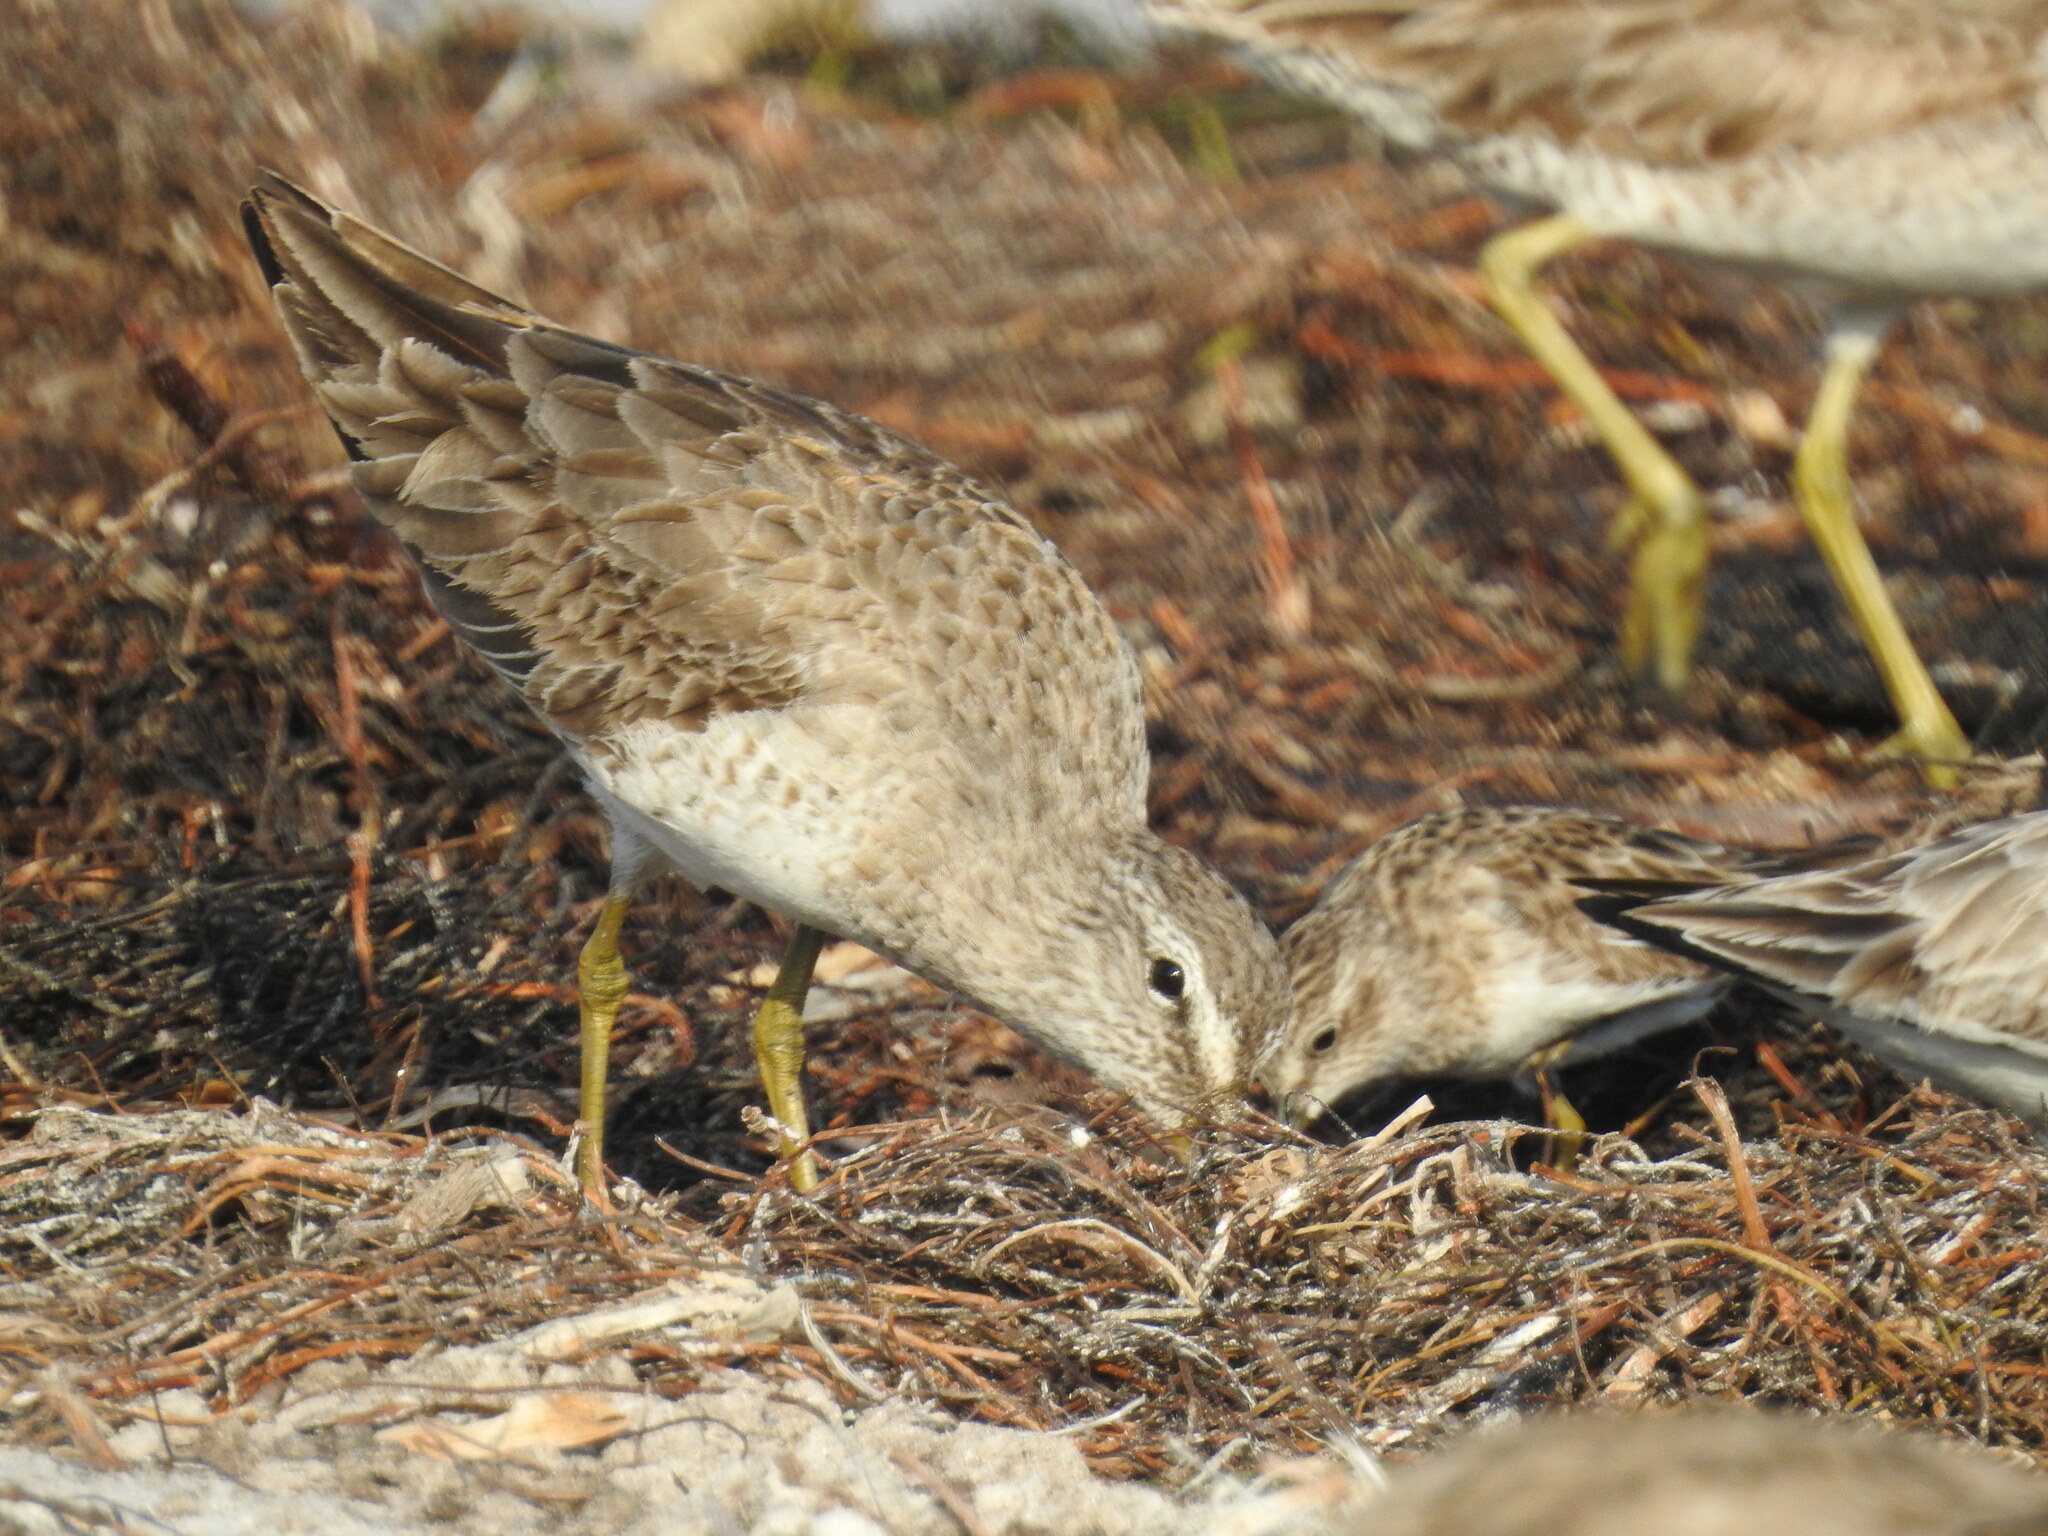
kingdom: Animalia
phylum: Chordata
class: Aves
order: Charadriiformes
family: Scolopacidae
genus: Limnodromus
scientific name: Limnodromus griseus
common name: Short-billed dowitcher
